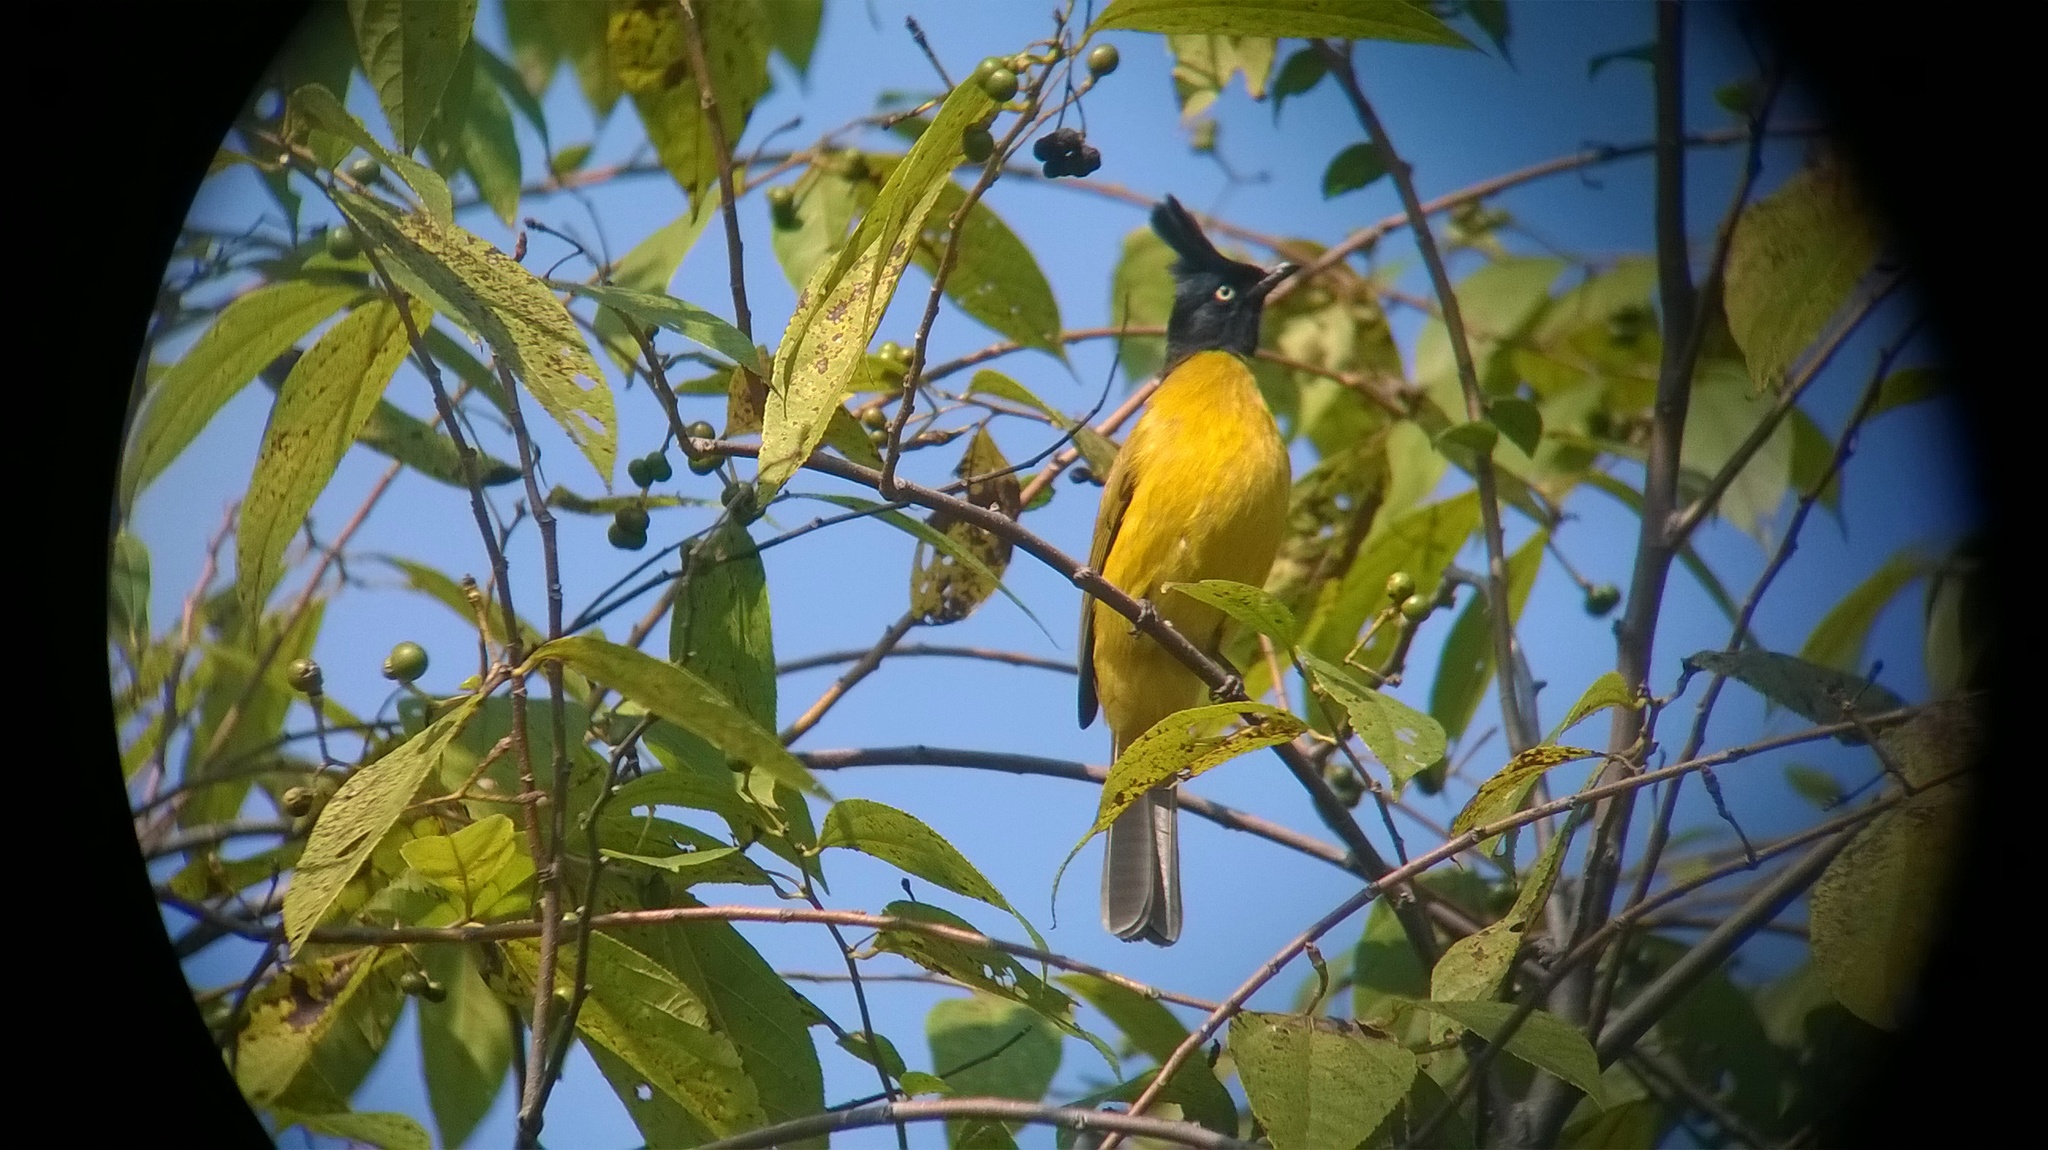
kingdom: Animalia
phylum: Chordata
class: Aves
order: Passeriformes
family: Pycnonotidae
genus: Pycnonotus
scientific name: Pycnonotus flaviventris
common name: Black-crested bulbul
